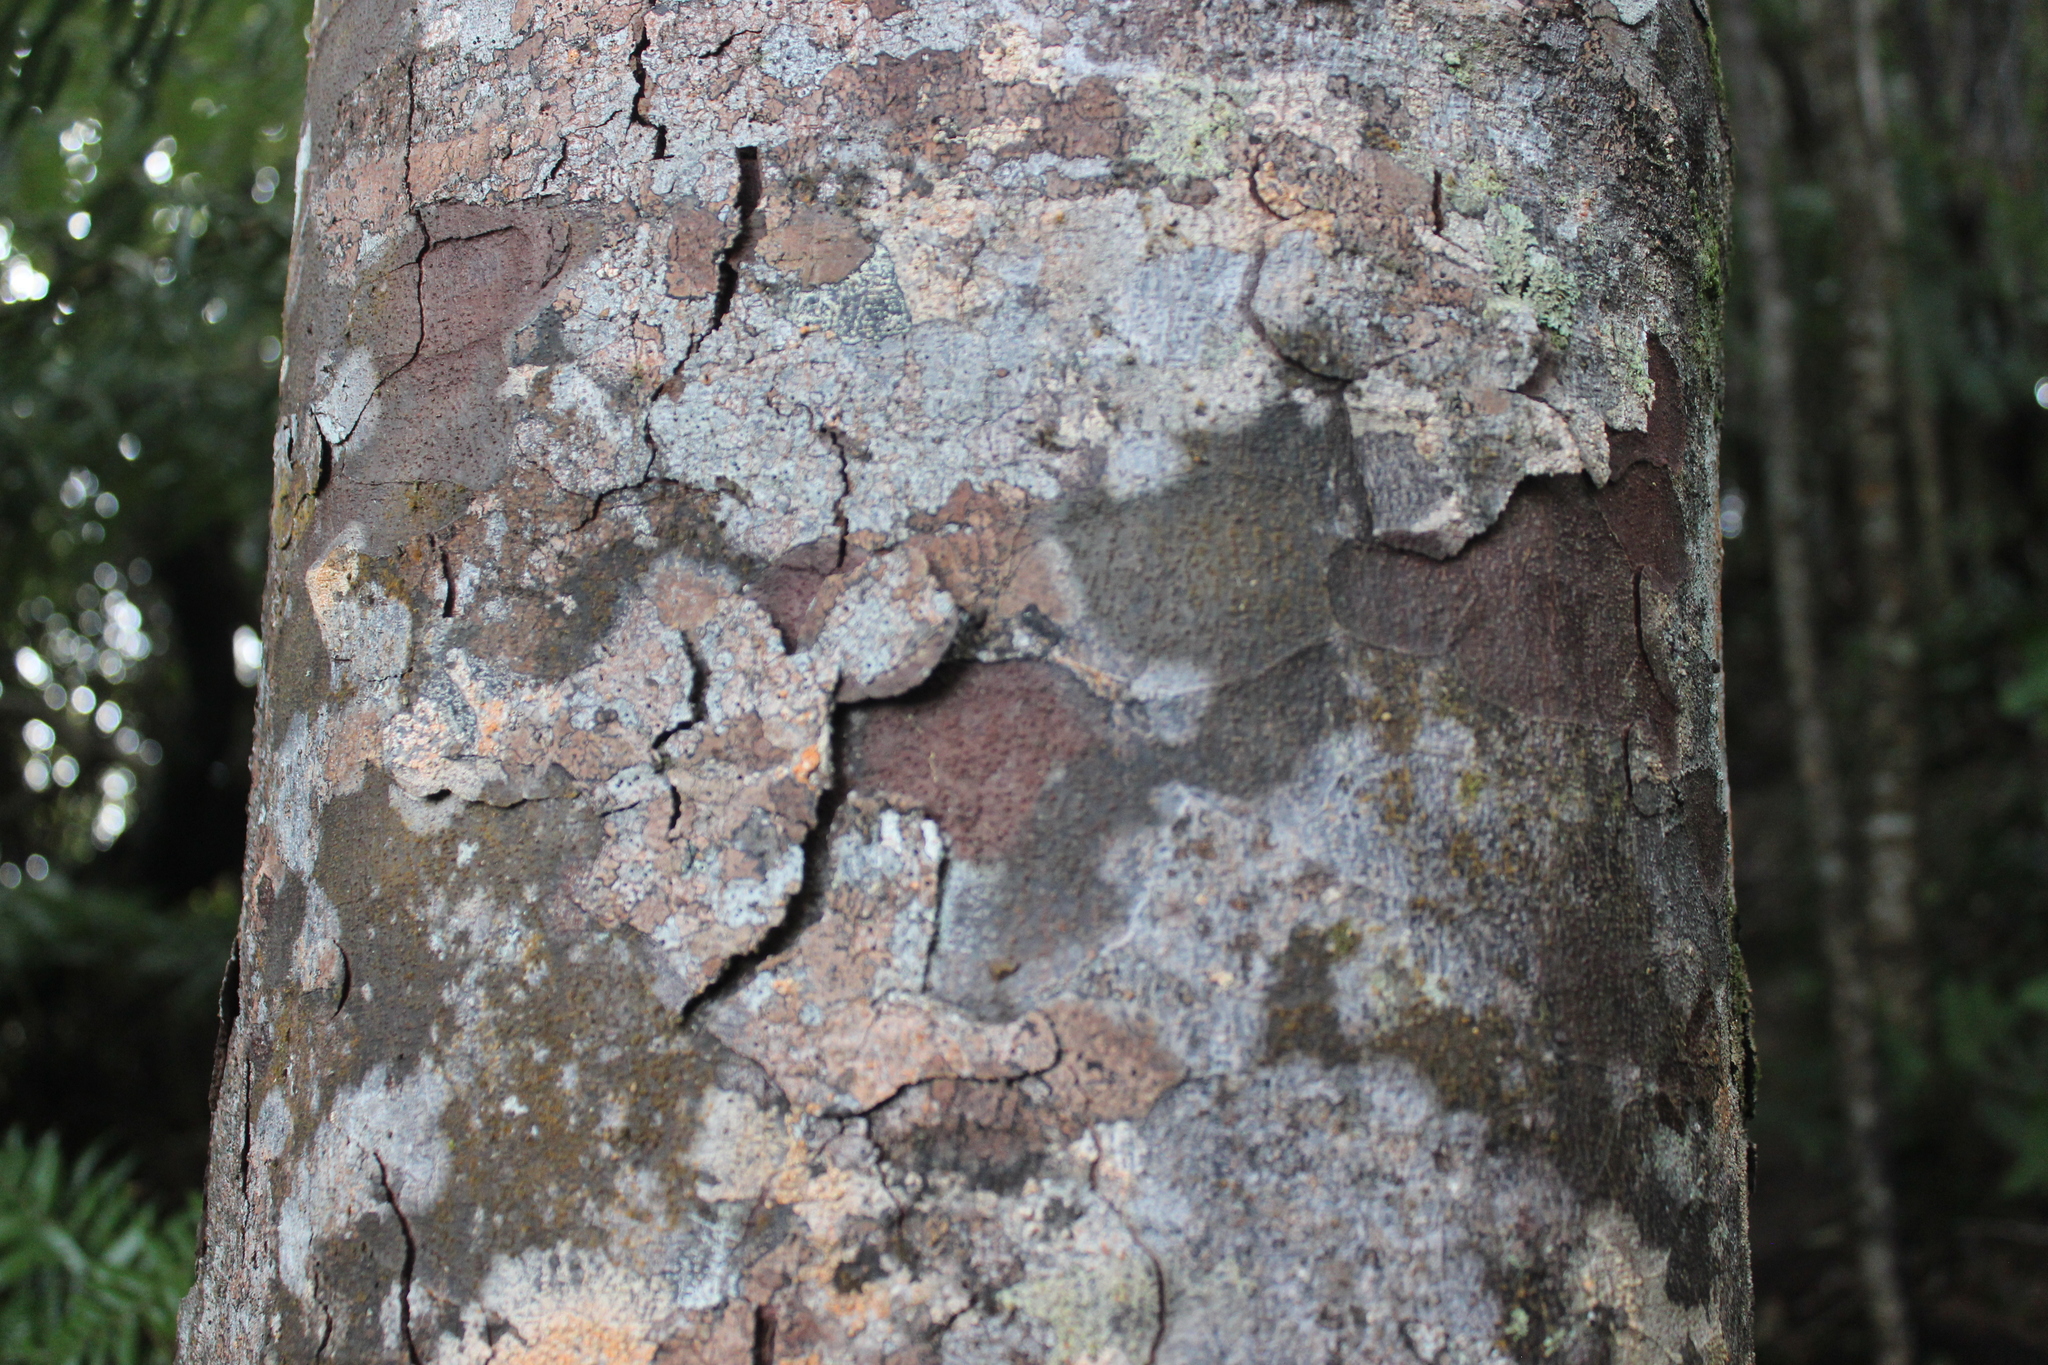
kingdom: Plantae
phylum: Tracheophyta
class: Pinopsida
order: Pinales
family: Podocarpaceae
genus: Prumnopitys
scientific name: Prumnopitys ferruginea
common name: Brown pine
